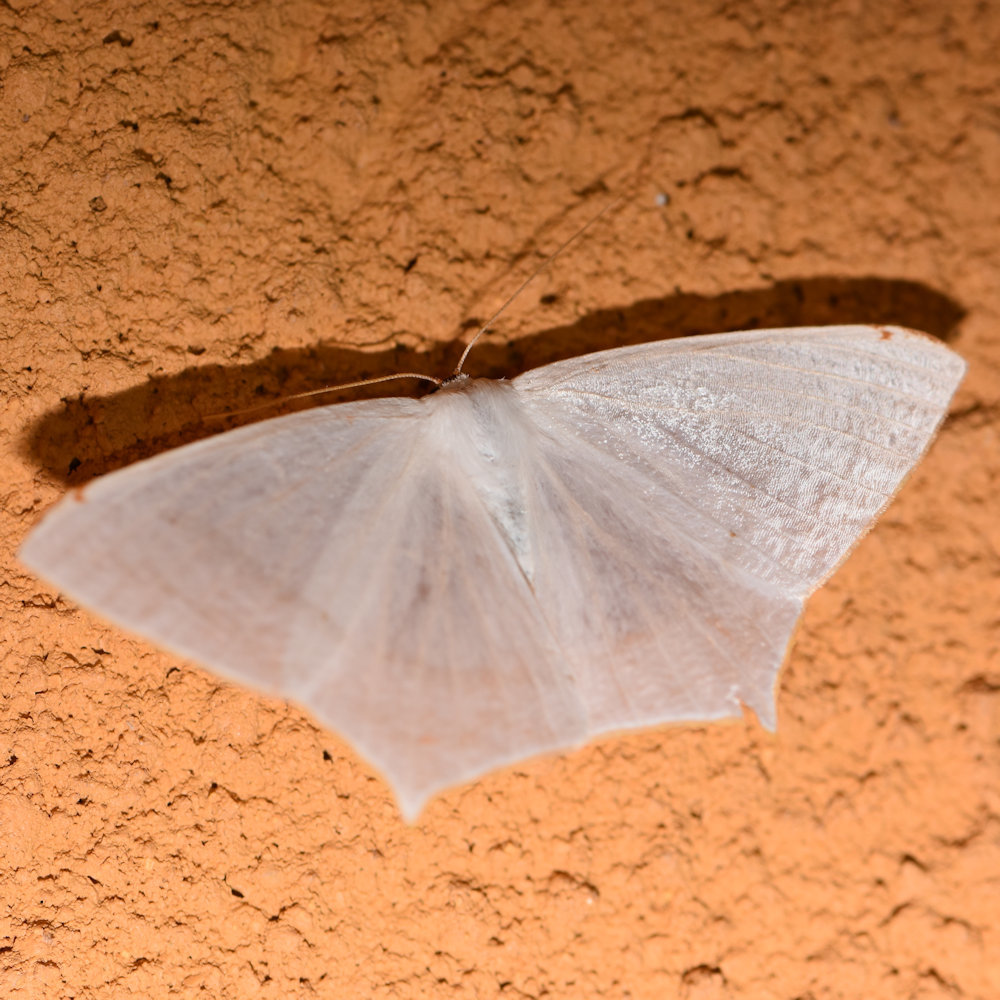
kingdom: Animalia
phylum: Arthropoda
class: Insecta
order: Lepidoptera
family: Geometridae
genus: Sericoptera
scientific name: Sericoptera flavifimbria
